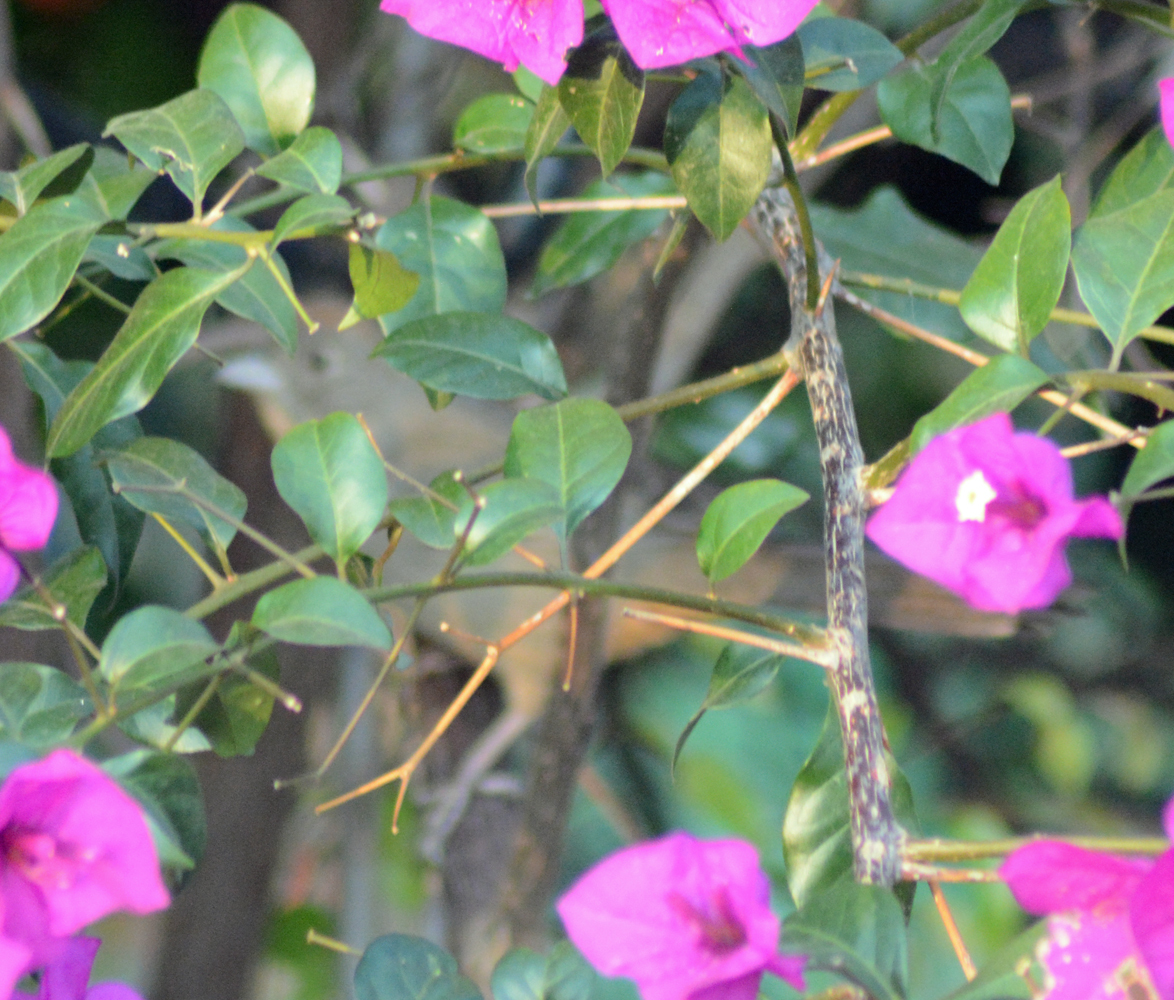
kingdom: Animalia
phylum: Chordata
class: Aves
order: Passeriformes
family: Passerellidae
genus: Melozone
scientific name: Melozone fusca
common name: Canyon towhee
